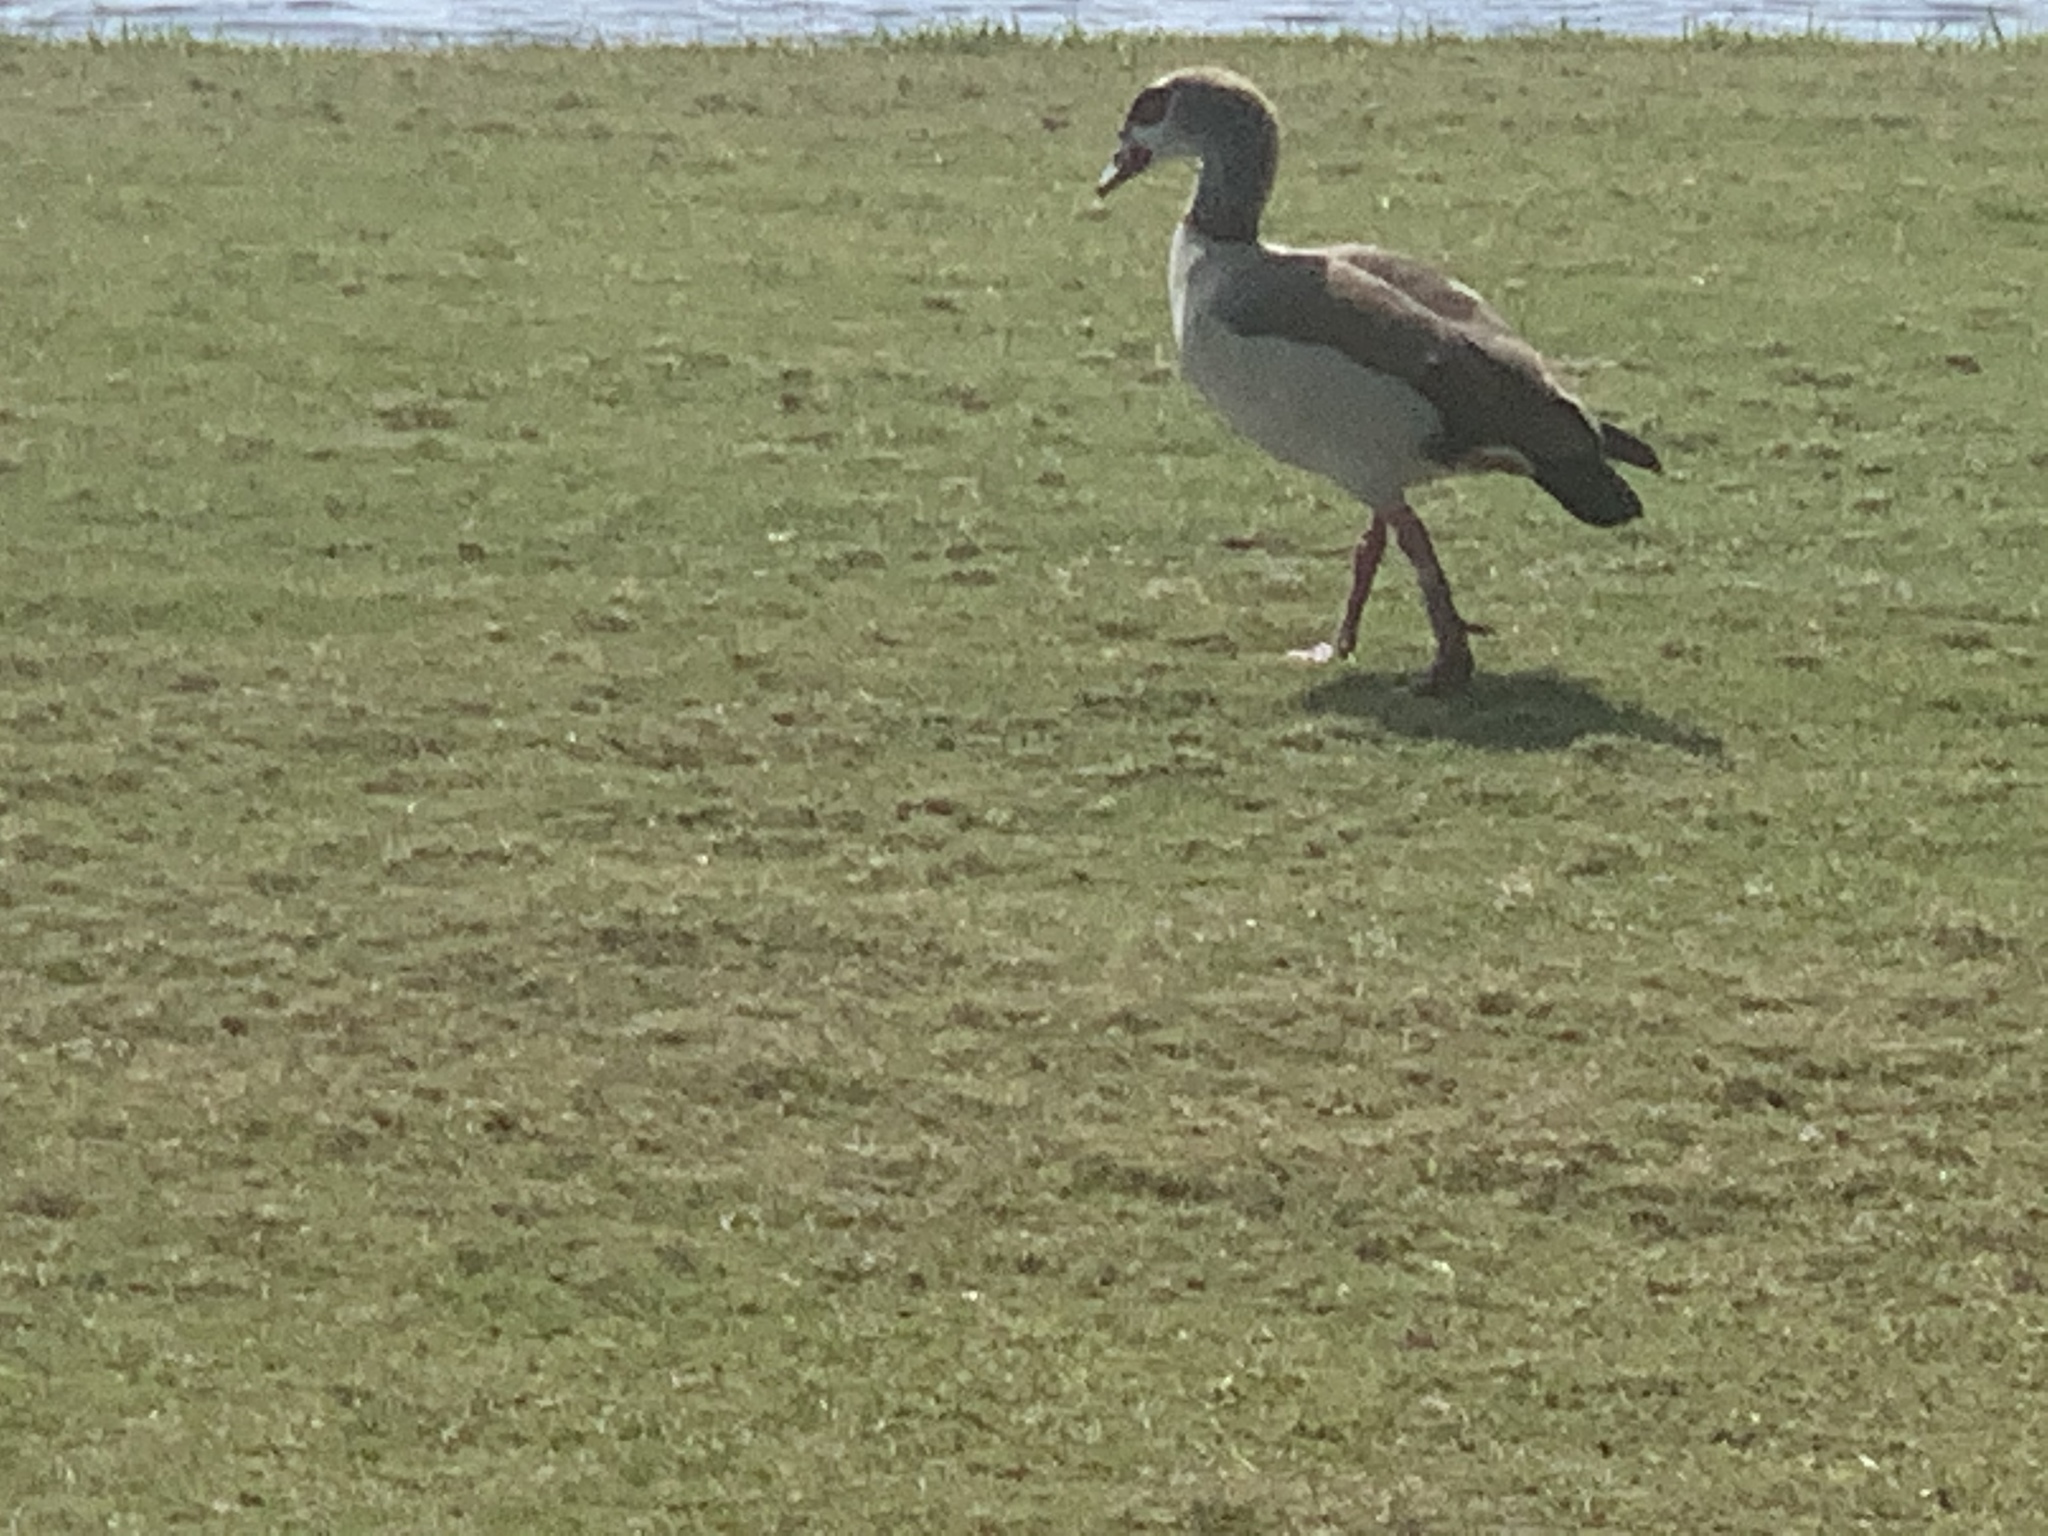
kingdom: Animalia
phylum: Chordata
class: Aves
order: Anseriformes
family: Anatidae
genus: Alopochen
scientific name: Alopochen aegyptiaca
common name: Egyptian goose
